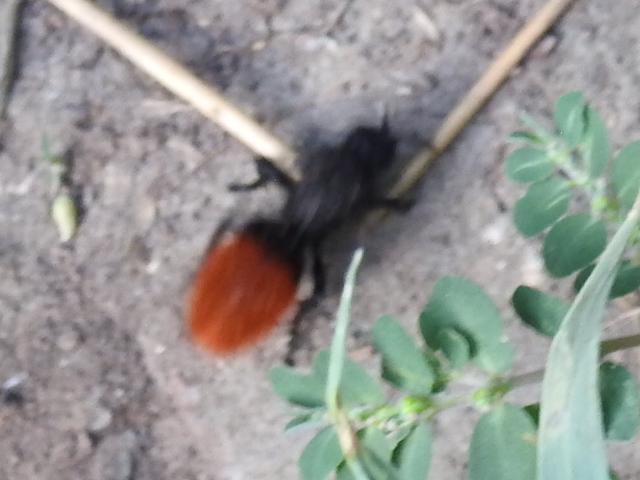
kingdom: Animalia
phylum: Arthropoda
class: Insecta
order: Hymenoptera
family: Mutillidae
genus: Dasymutilla
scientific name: Dasymutilla
